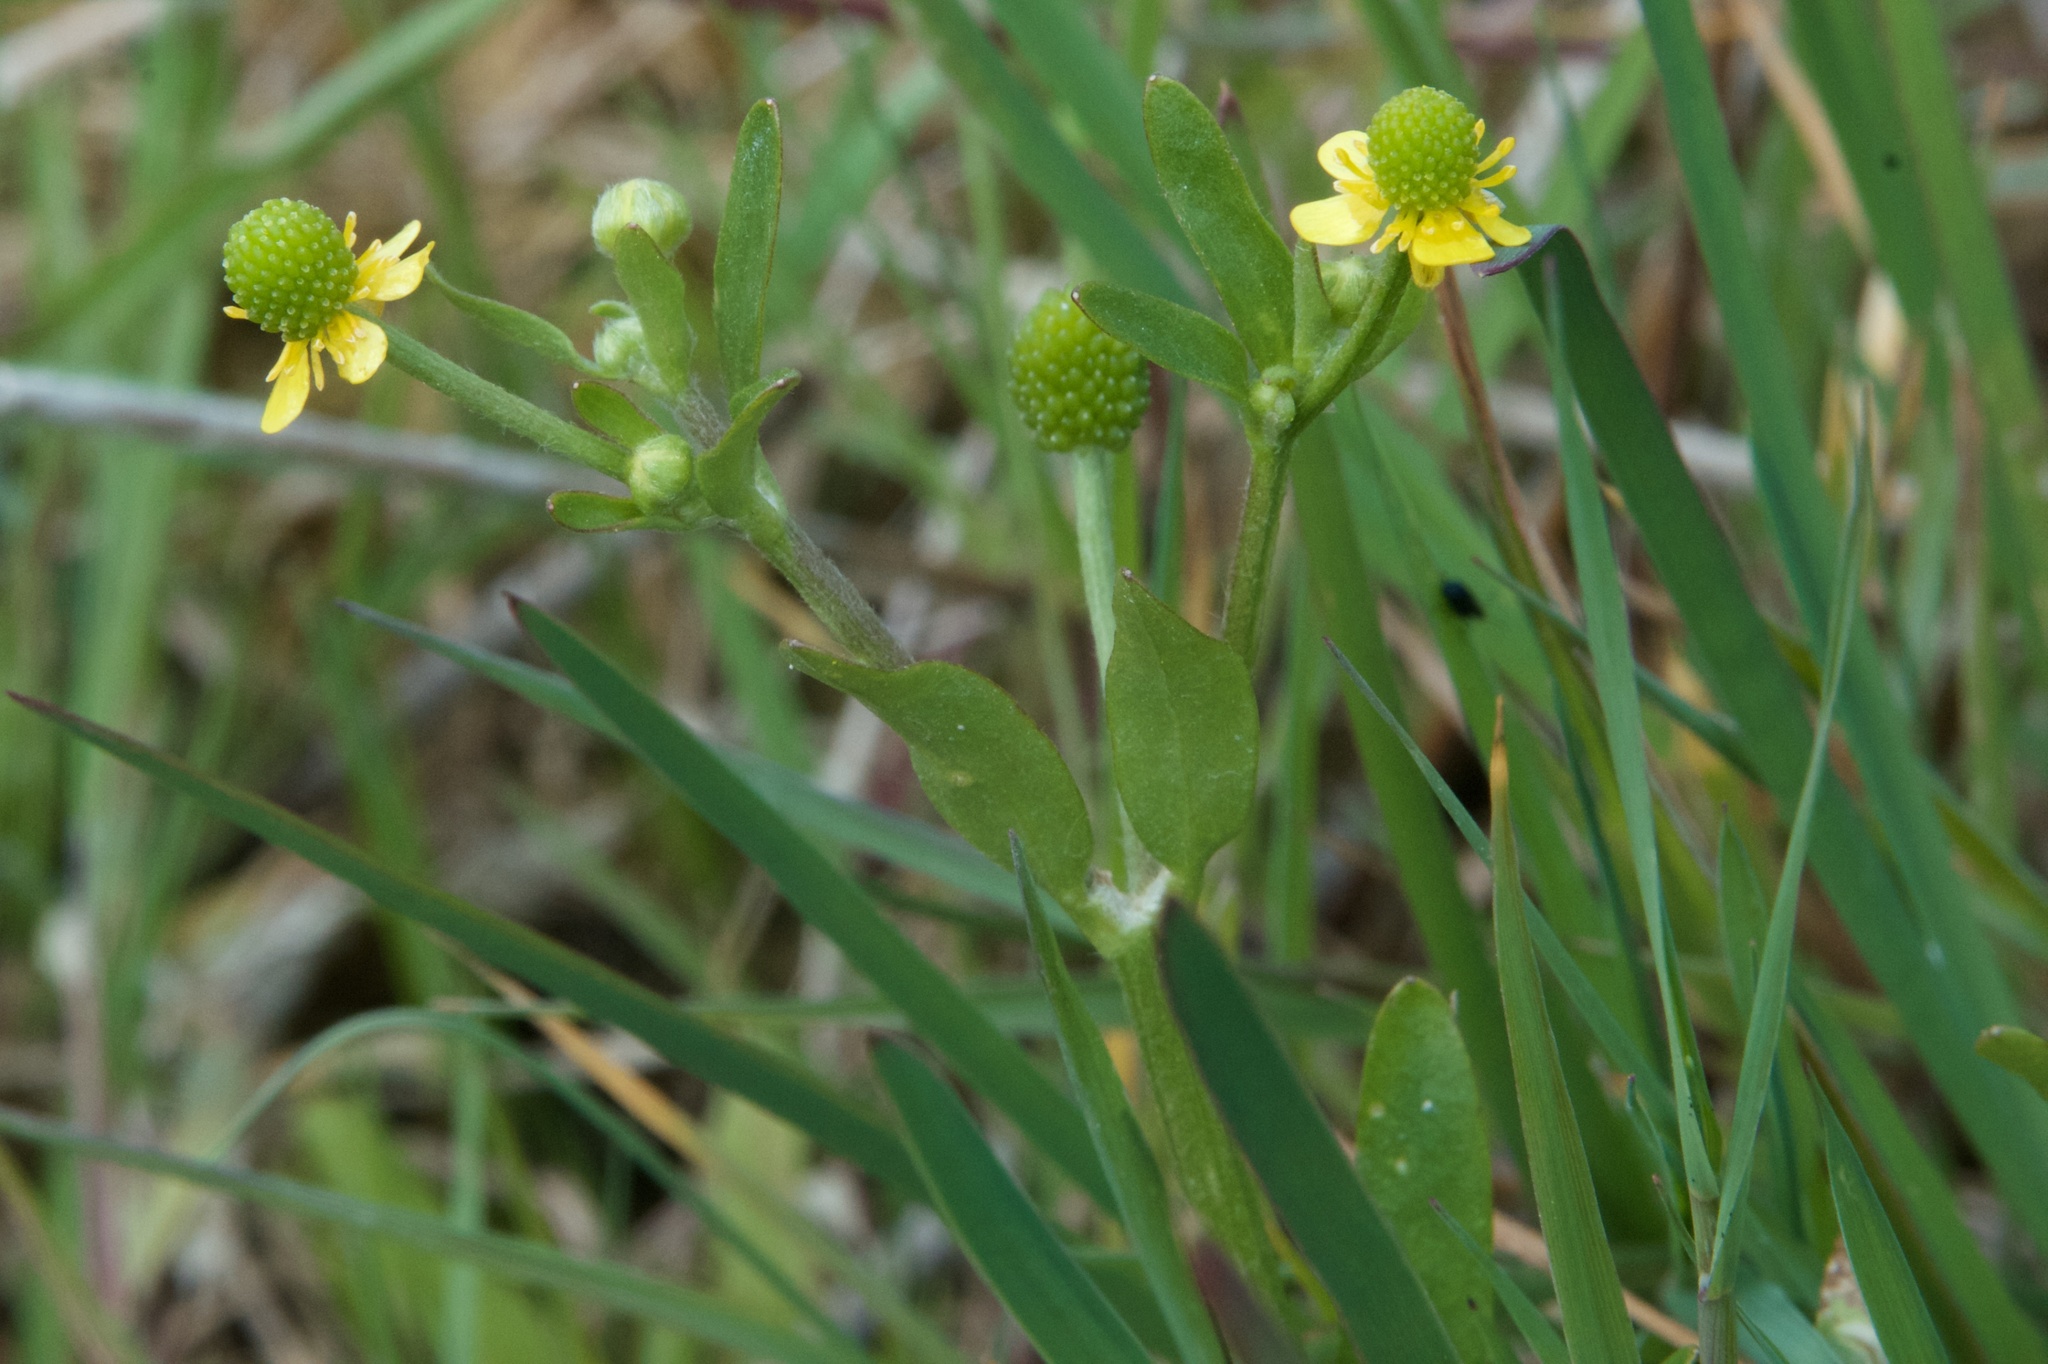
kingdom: Plantae
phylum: Tracheophyta
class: Magnoliopsida
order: Ranunculales
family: Ranunculaceae
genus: Ranunculus
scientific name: Ranunculus sceleratus
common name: Celery-leaved buttercup
